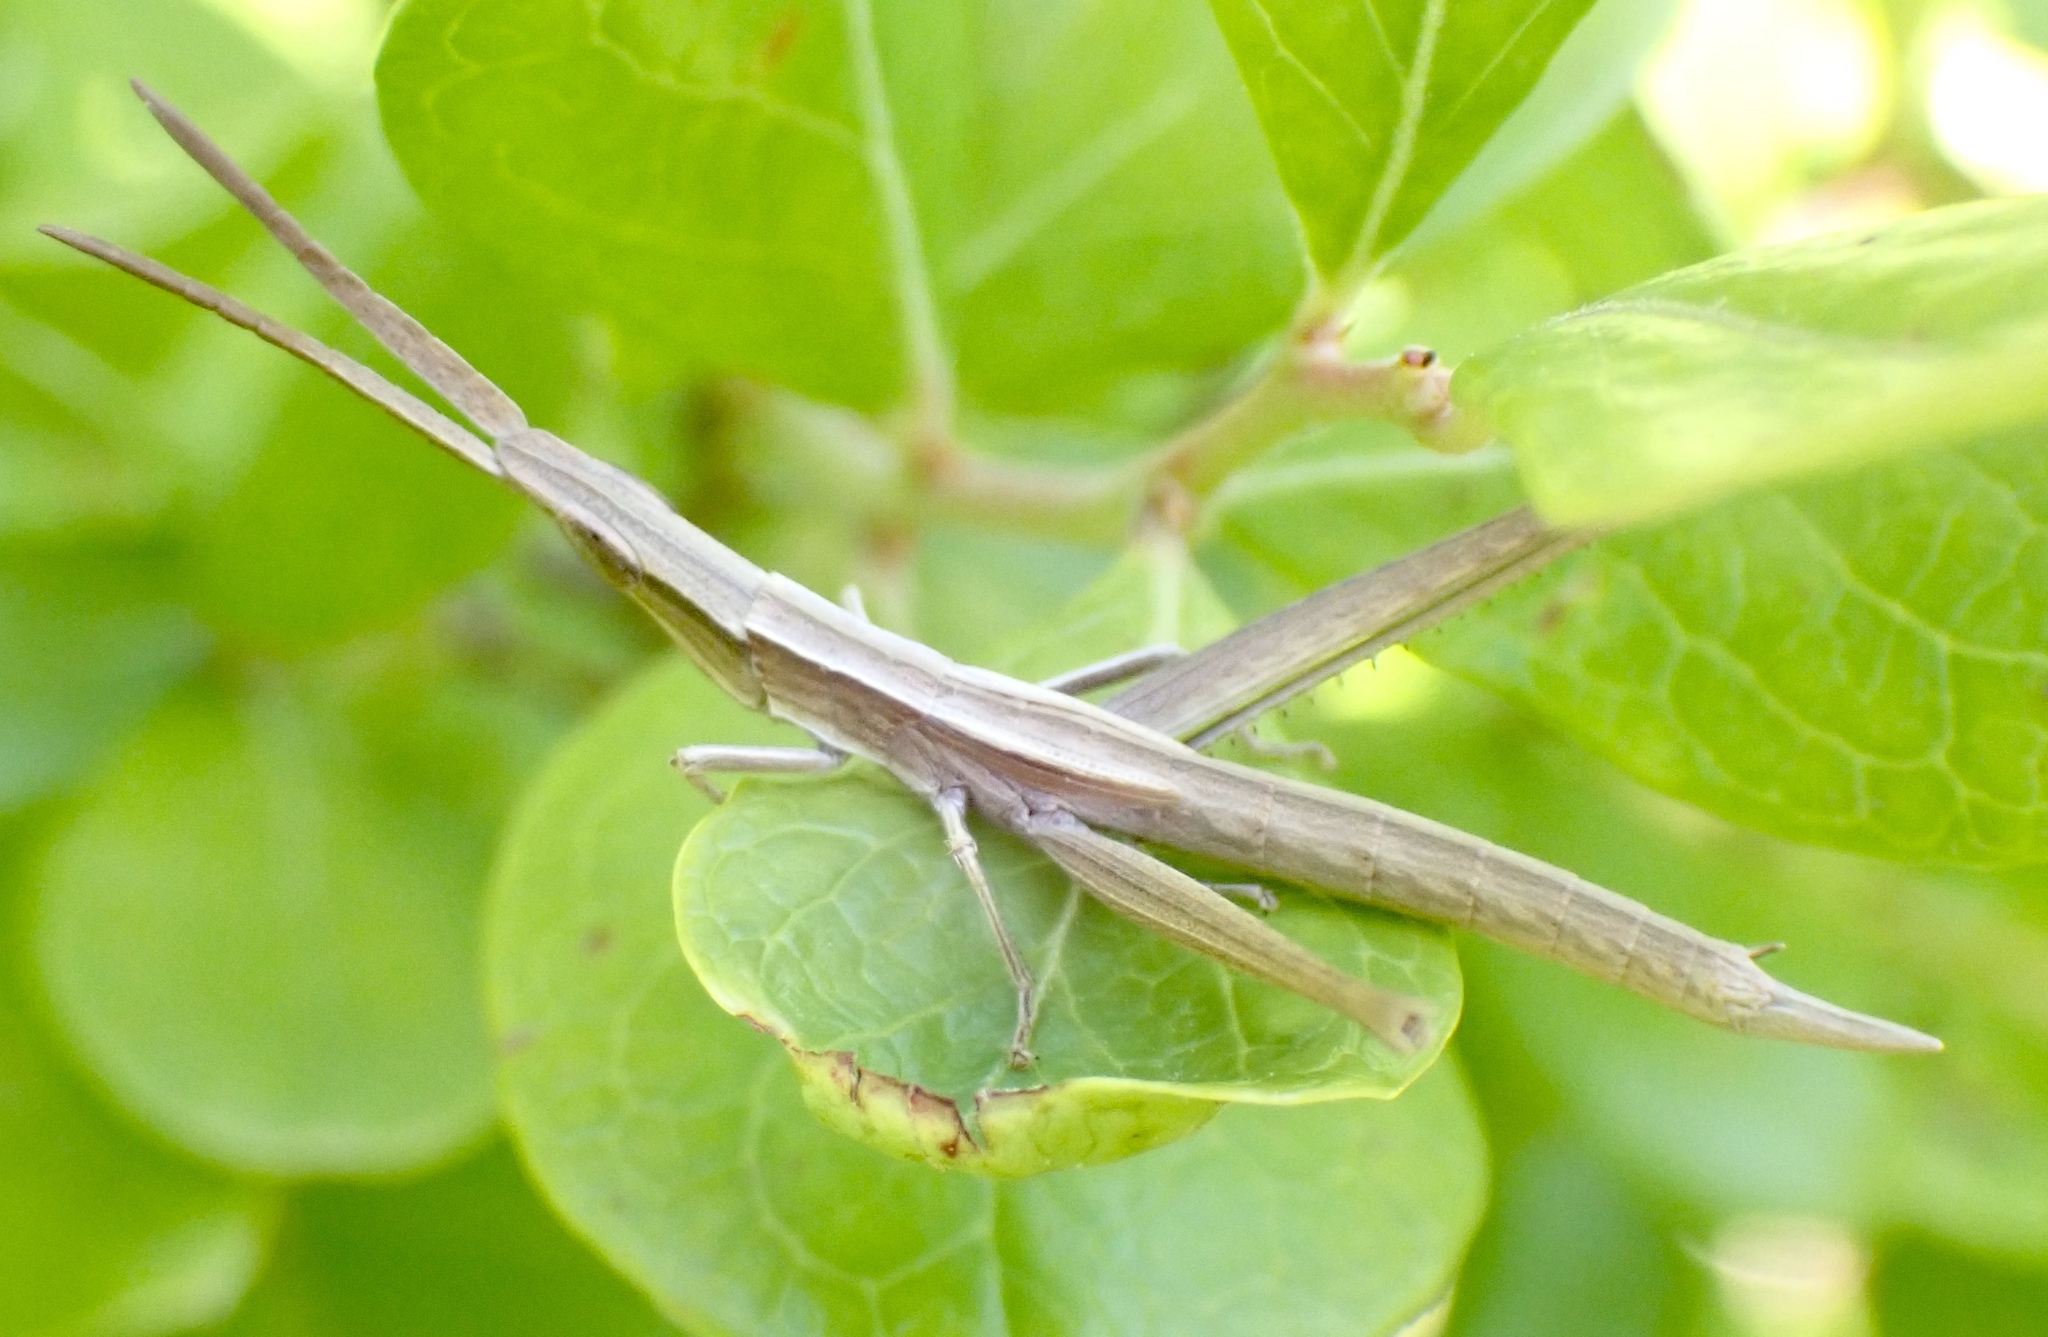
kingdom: Animalia
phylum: Arthropoda
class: Insecta
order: Orthoptera
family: Acrididae
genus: Achurum
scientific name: Achurum carinatum
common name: Long-headed toothpick grasshopper
